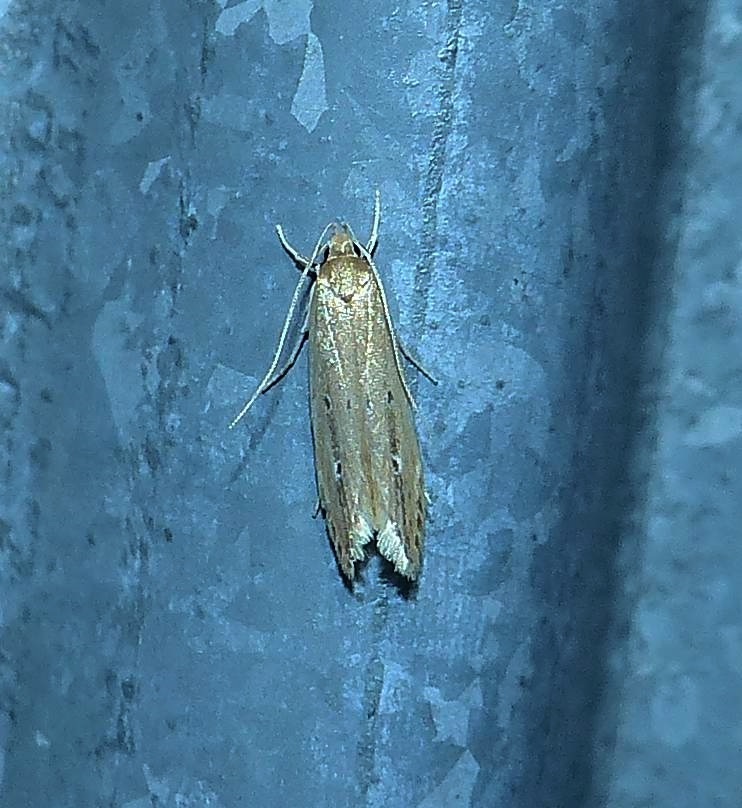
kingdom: Animalia
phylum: Arthropoda
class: Insecta
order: Lepidoptera
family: Cosmopterigidae
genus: Limnaecia
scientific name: Limnaecia phragmitella
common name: Bulrush cosmet
